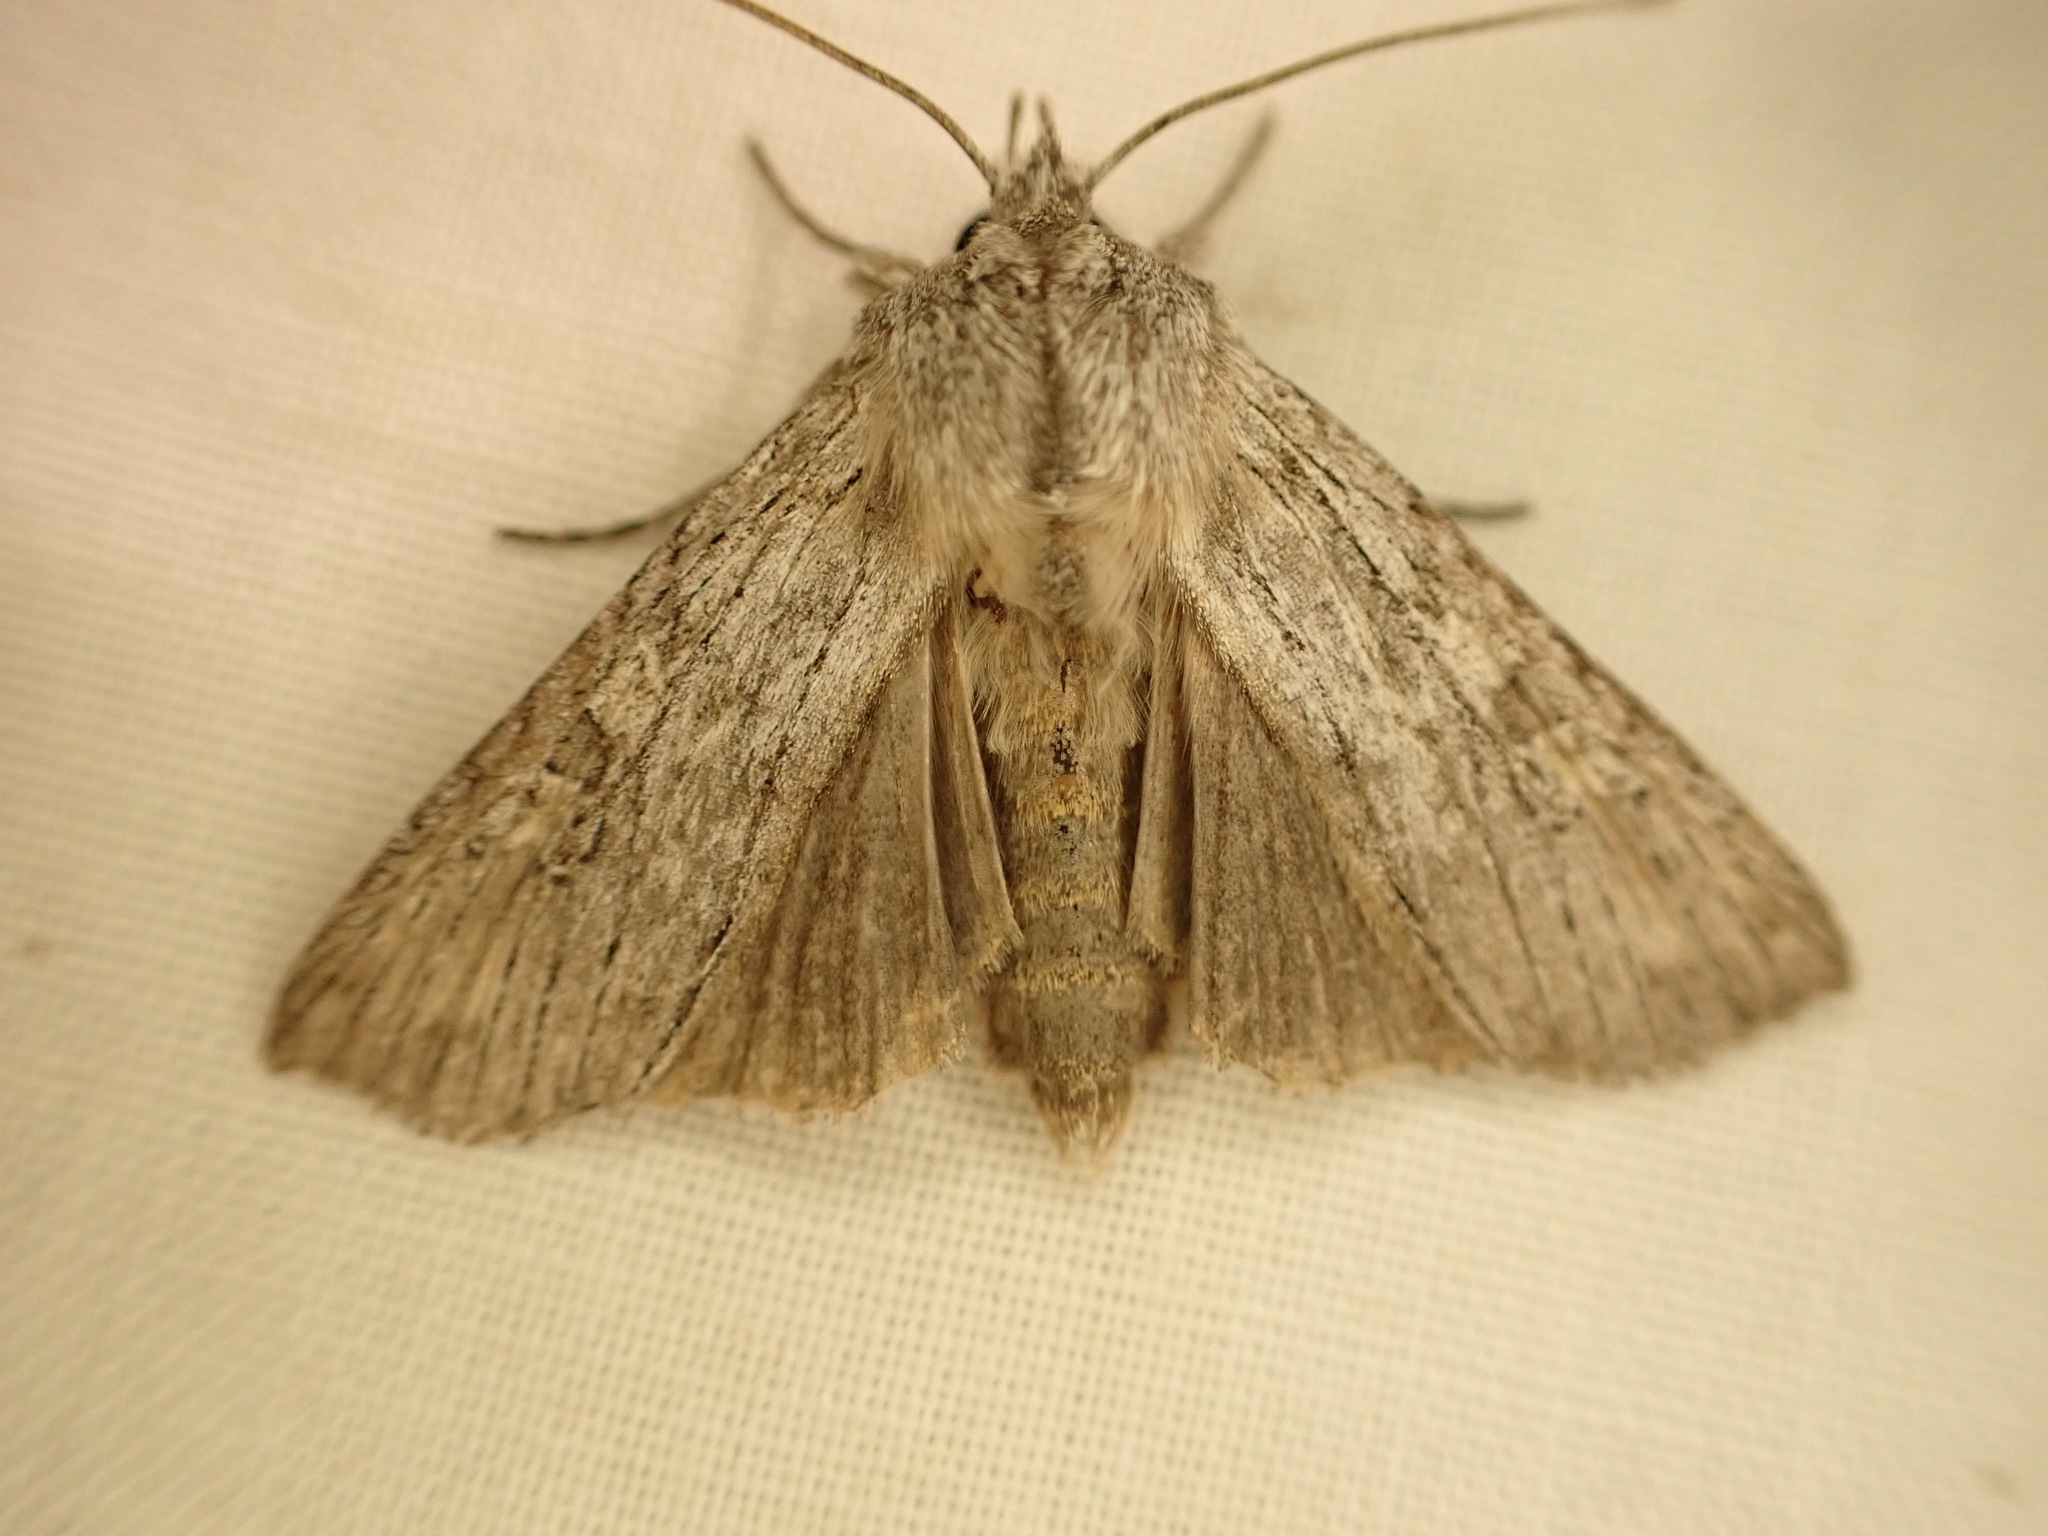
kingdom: Animalia
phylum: Arthropoda
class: Insecta
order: Lepidoptera
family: Noctuidae
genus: Physetica
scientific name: Physetica phricias
